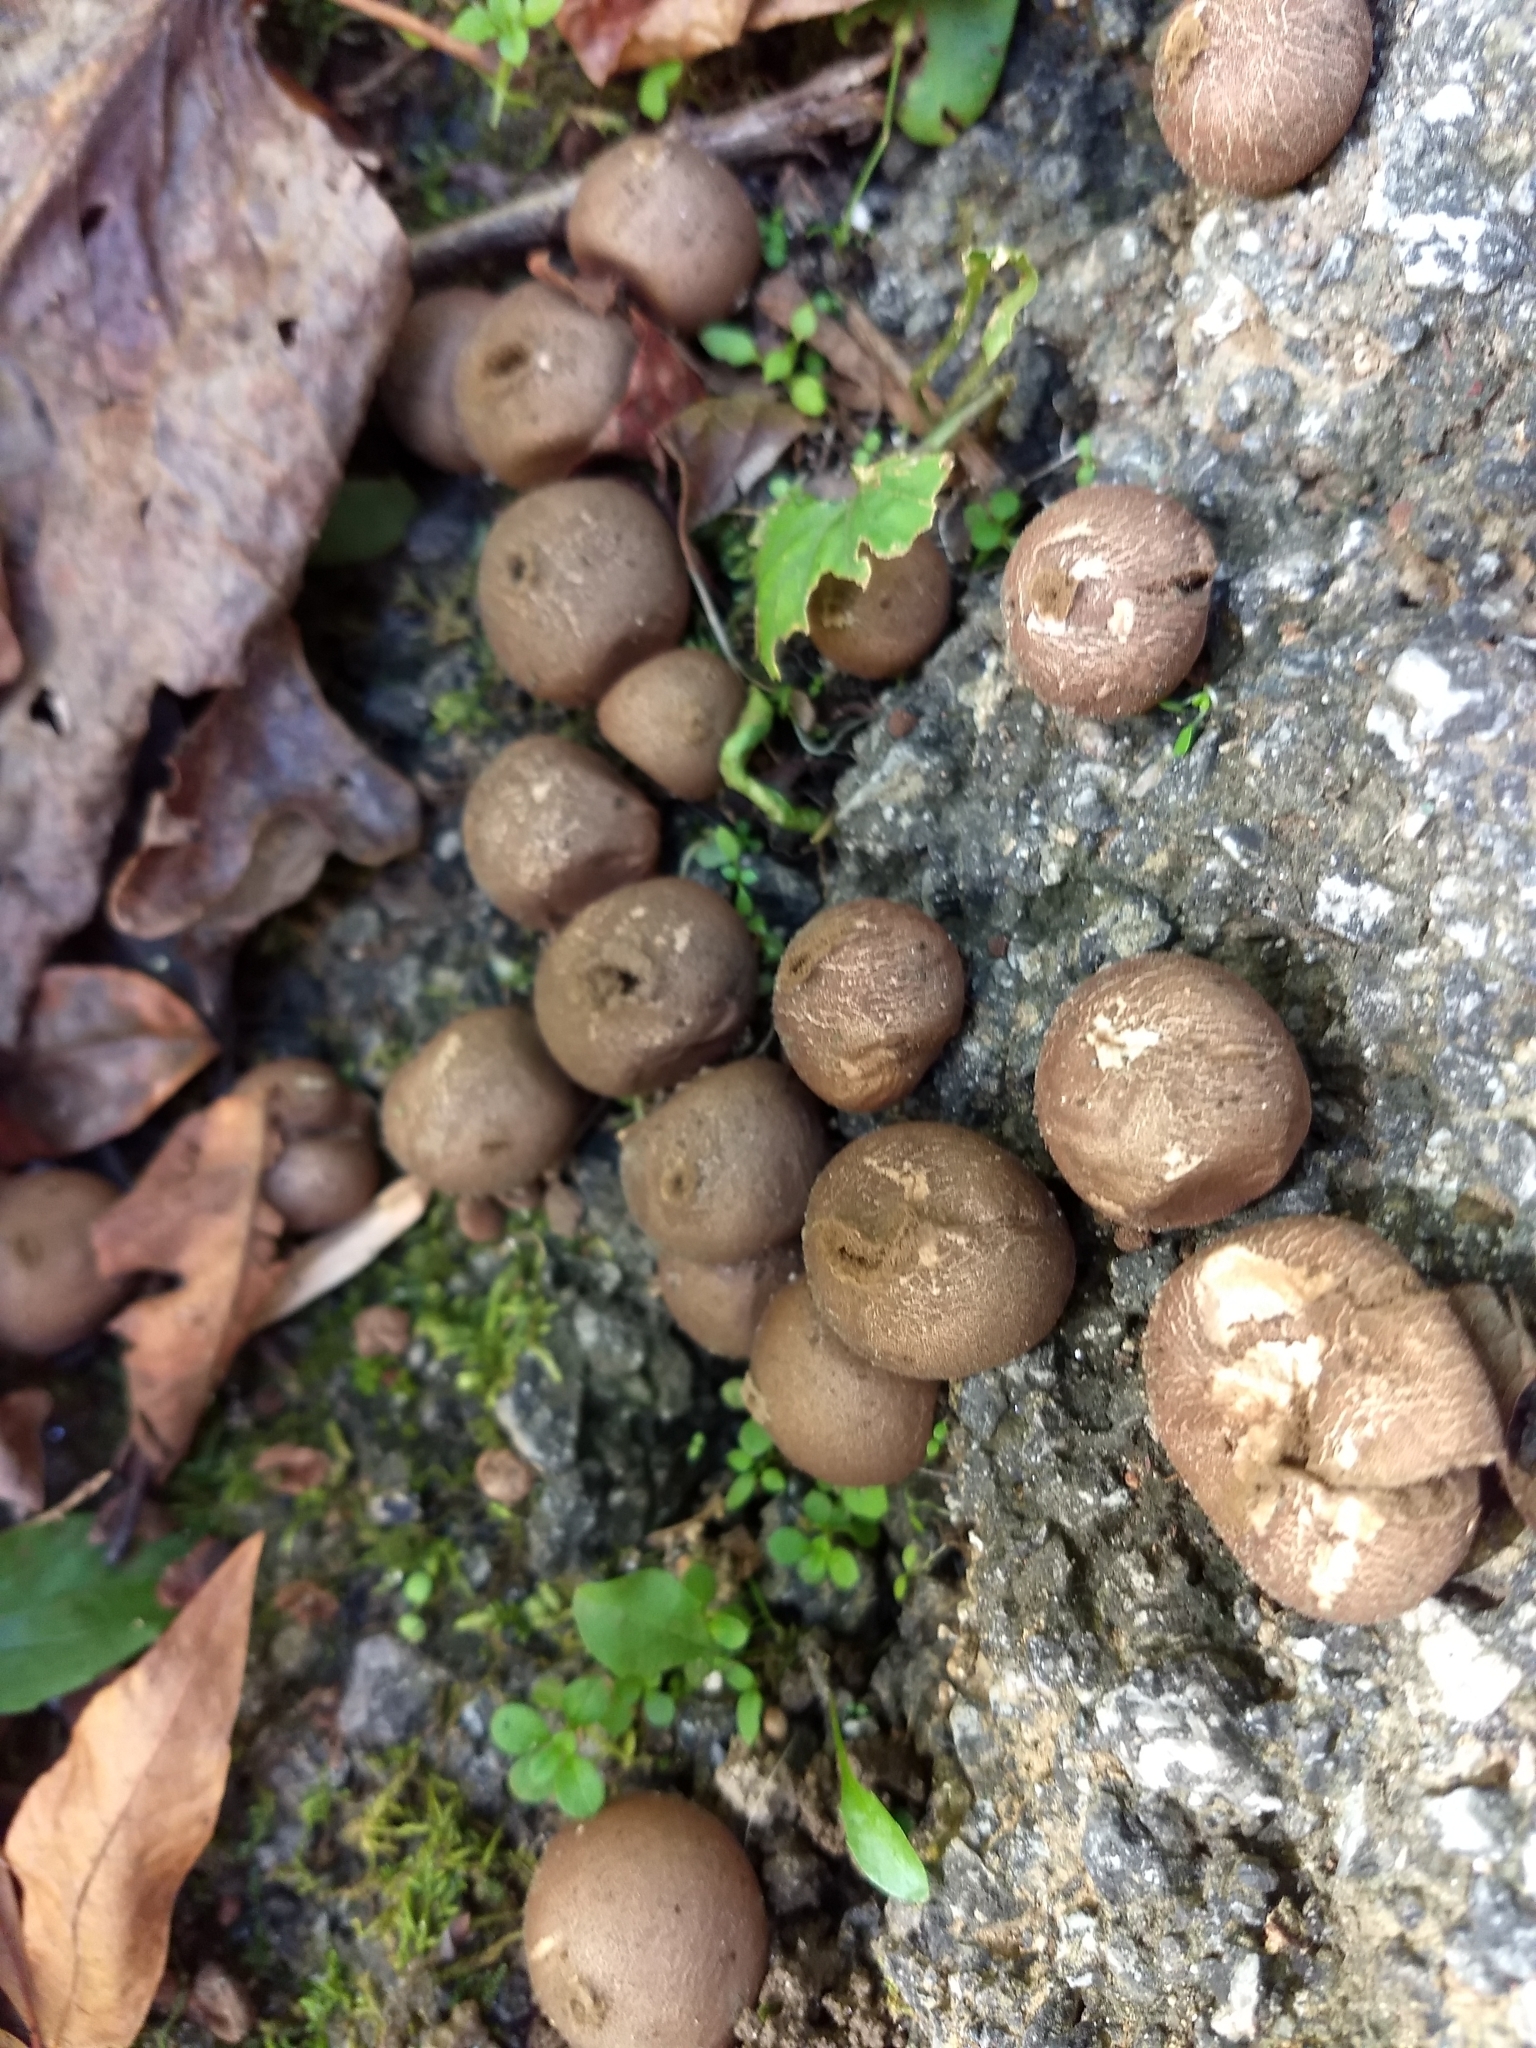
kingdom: Fungi
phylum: Basidiomycota
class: Agaricomycetes
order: Agaricales
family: Lycoperdaceae
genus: Apioperdon
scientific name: Apioperdon pyriforme
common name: Pear-shaped puffball
